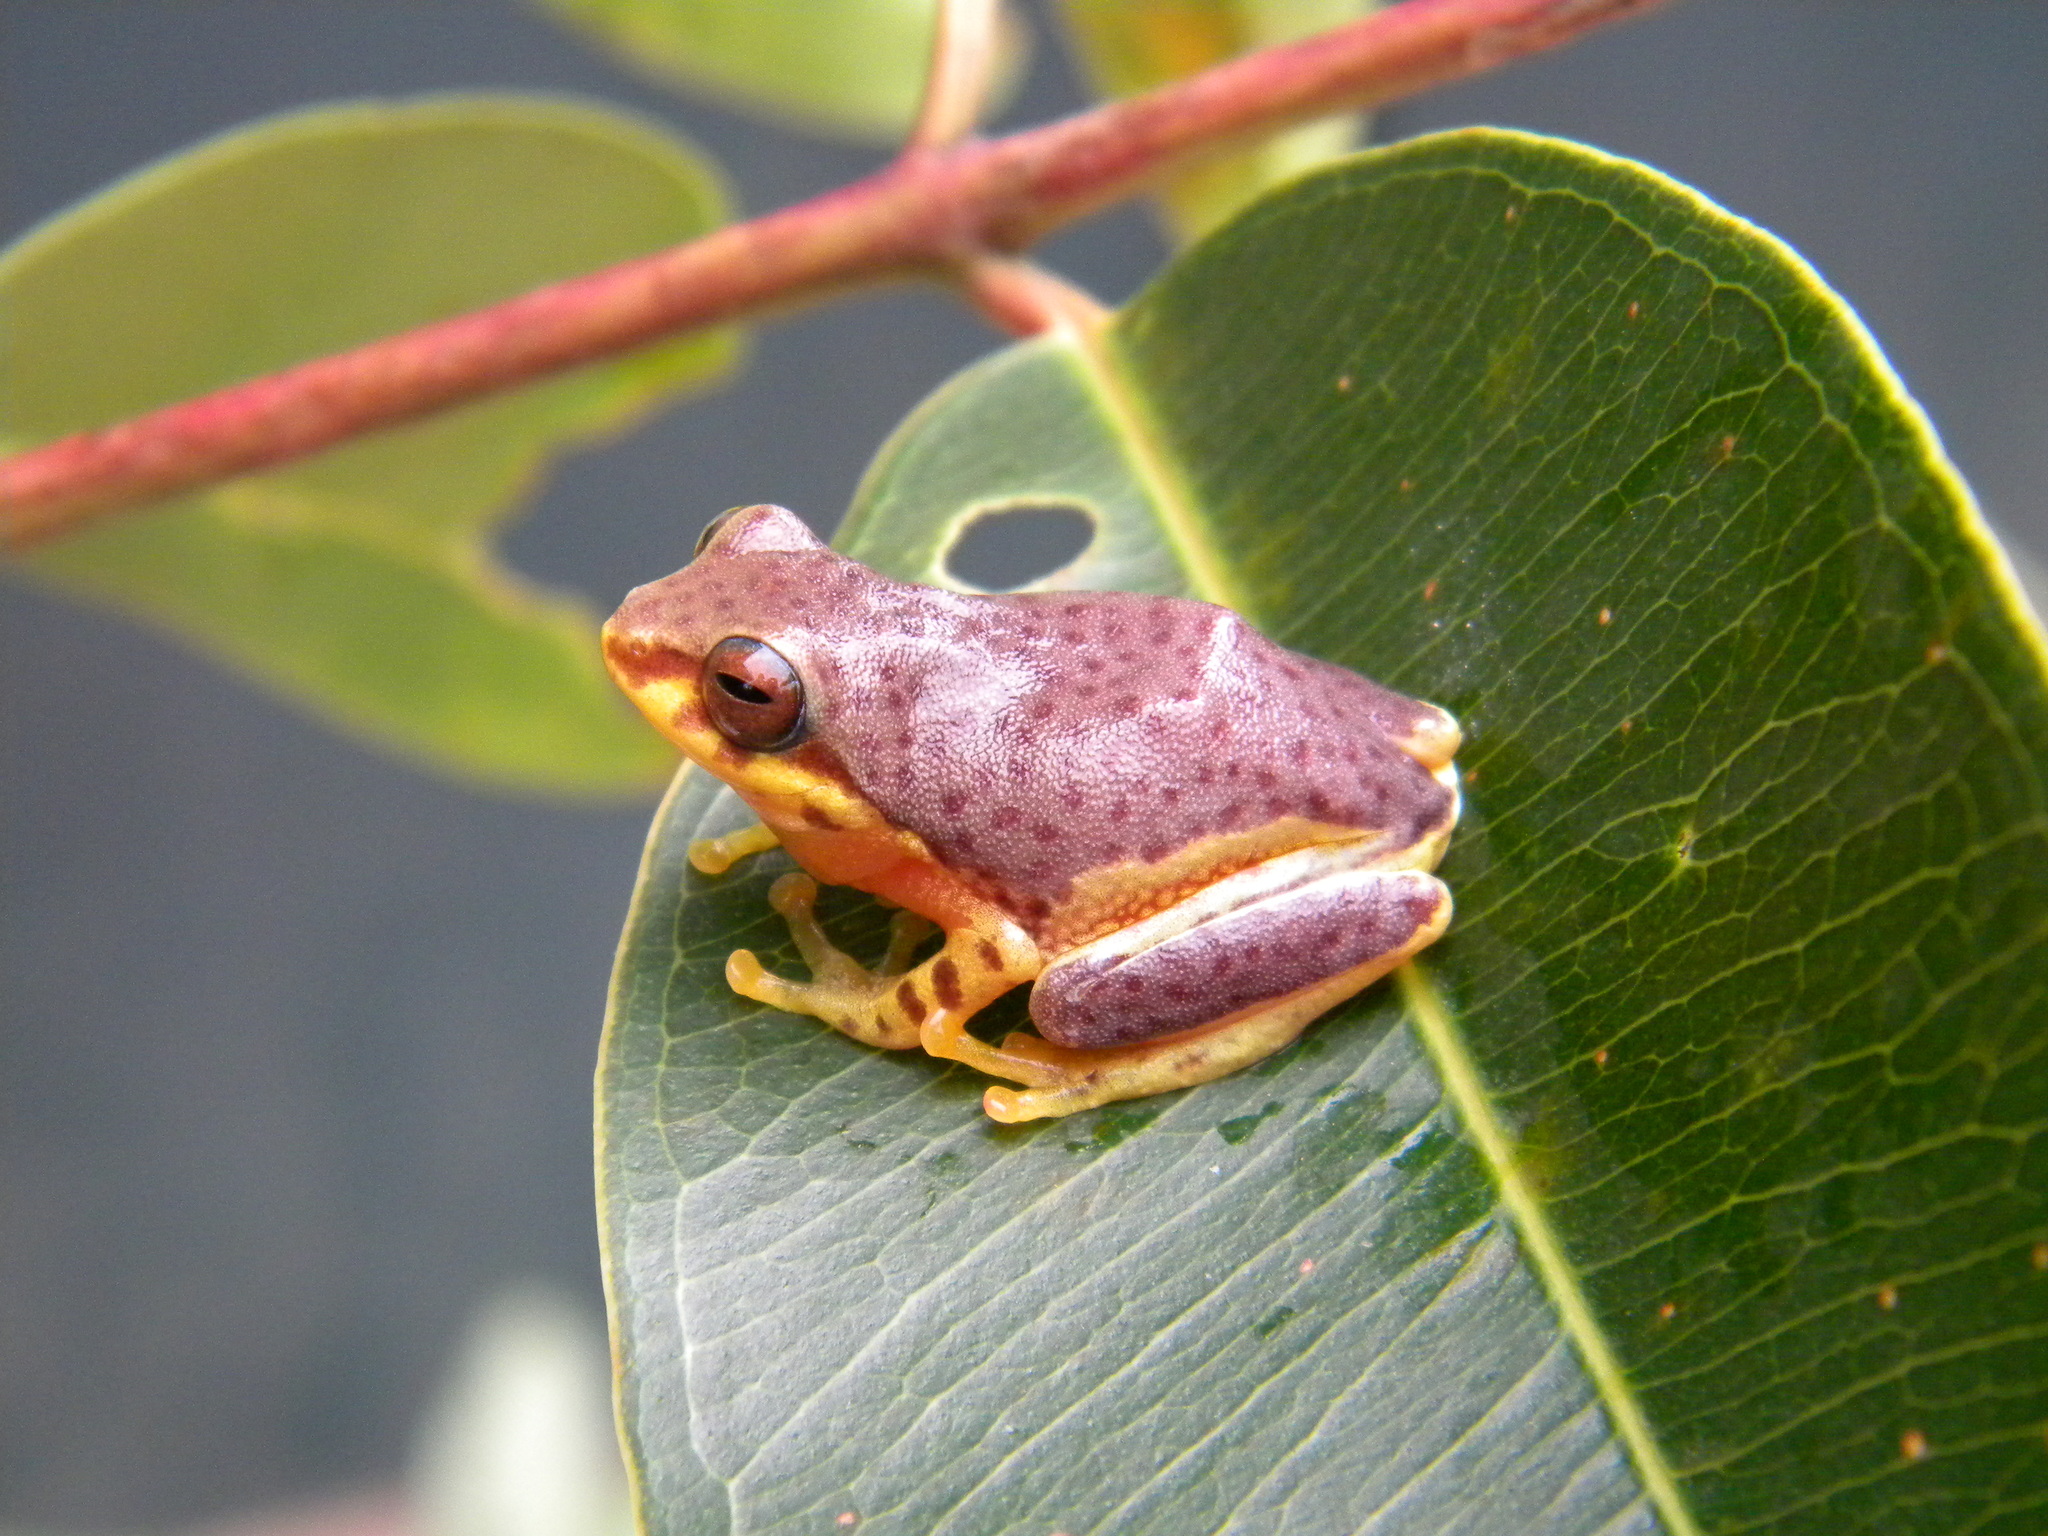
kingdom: Animalia
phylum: Chordata
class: Amphibia
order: Anura
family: Rhacophoridae
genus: Raorchestes
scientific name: Raorchestes glandulosus
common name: Beautiful bush frog
